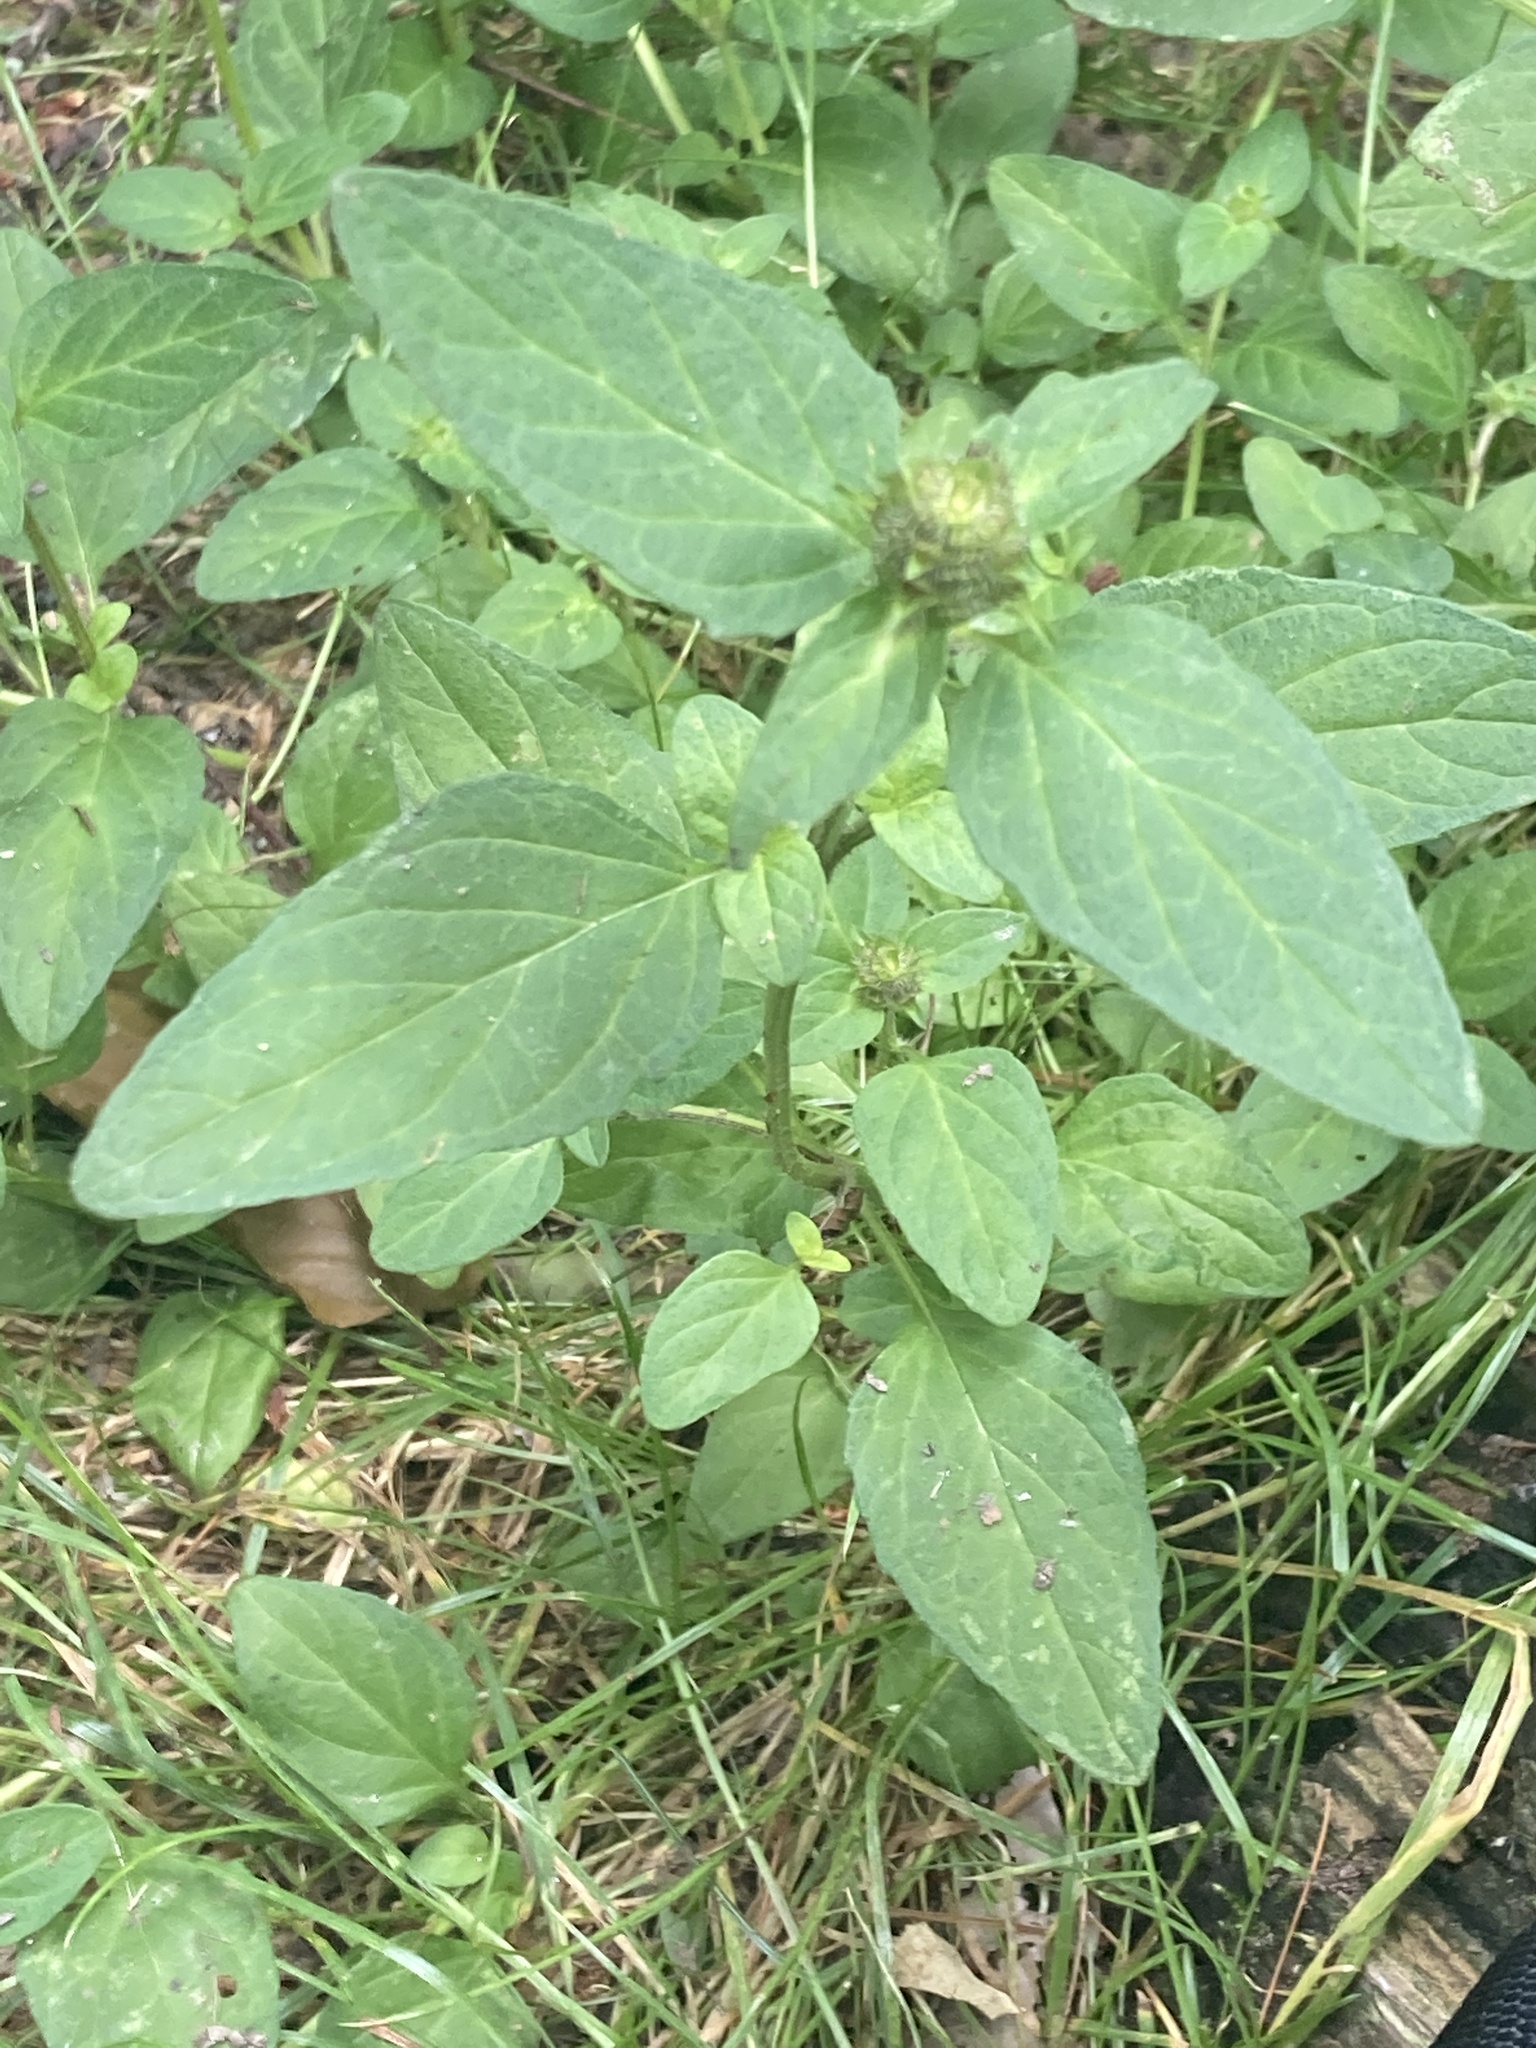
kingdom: Plantae
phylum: Tracheophyta
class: Magnoliopsida
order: Lamiales
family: Lamiaceae
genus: Prunella
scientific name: Prunella vulgaris
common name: Heal-all
